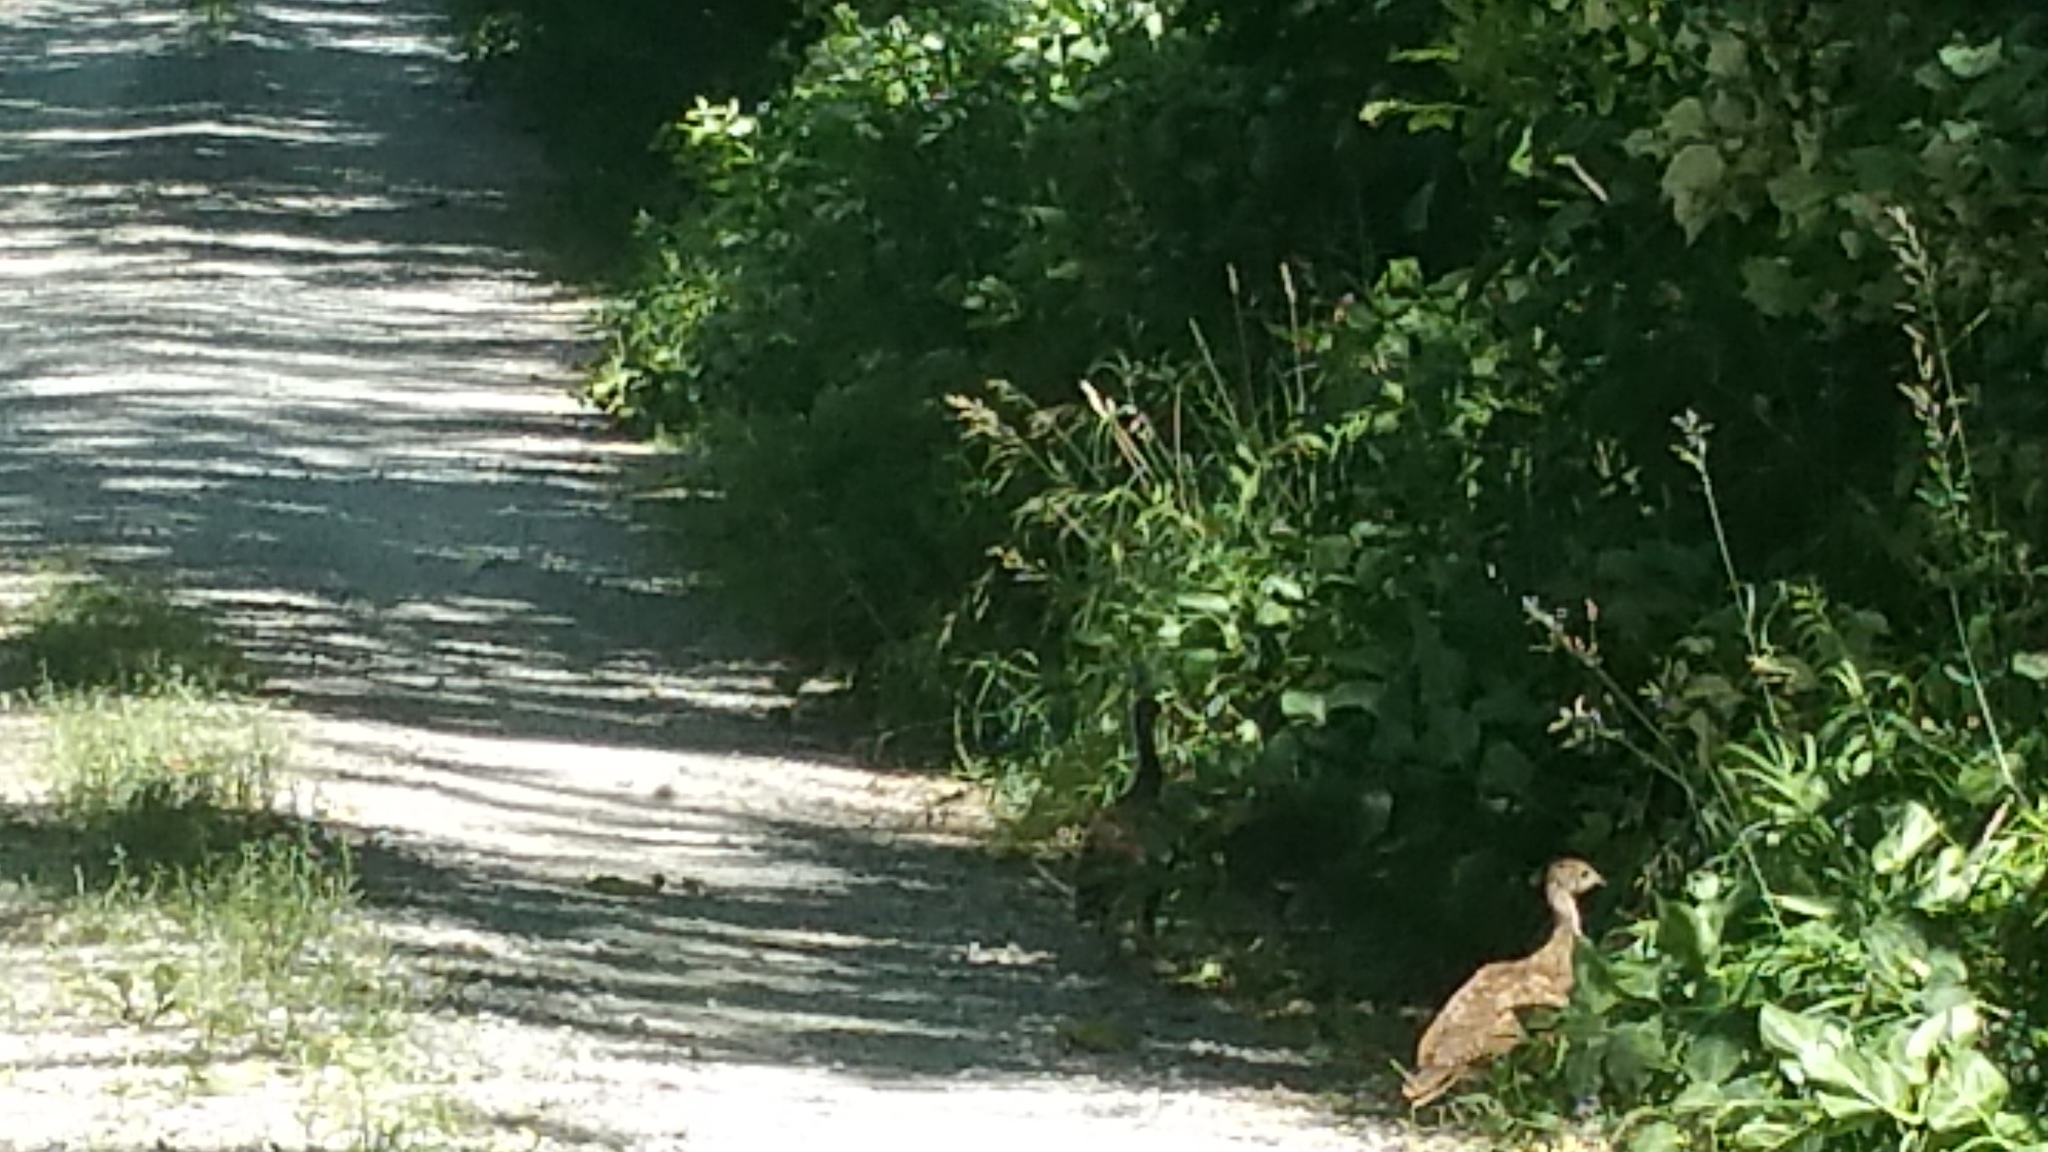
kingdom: Animalia
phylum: Chordata
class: Aves
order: Galliformes
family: Phasianidae
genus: Meleagris
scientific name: Meleagris gallopavo
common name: Wild turkey
